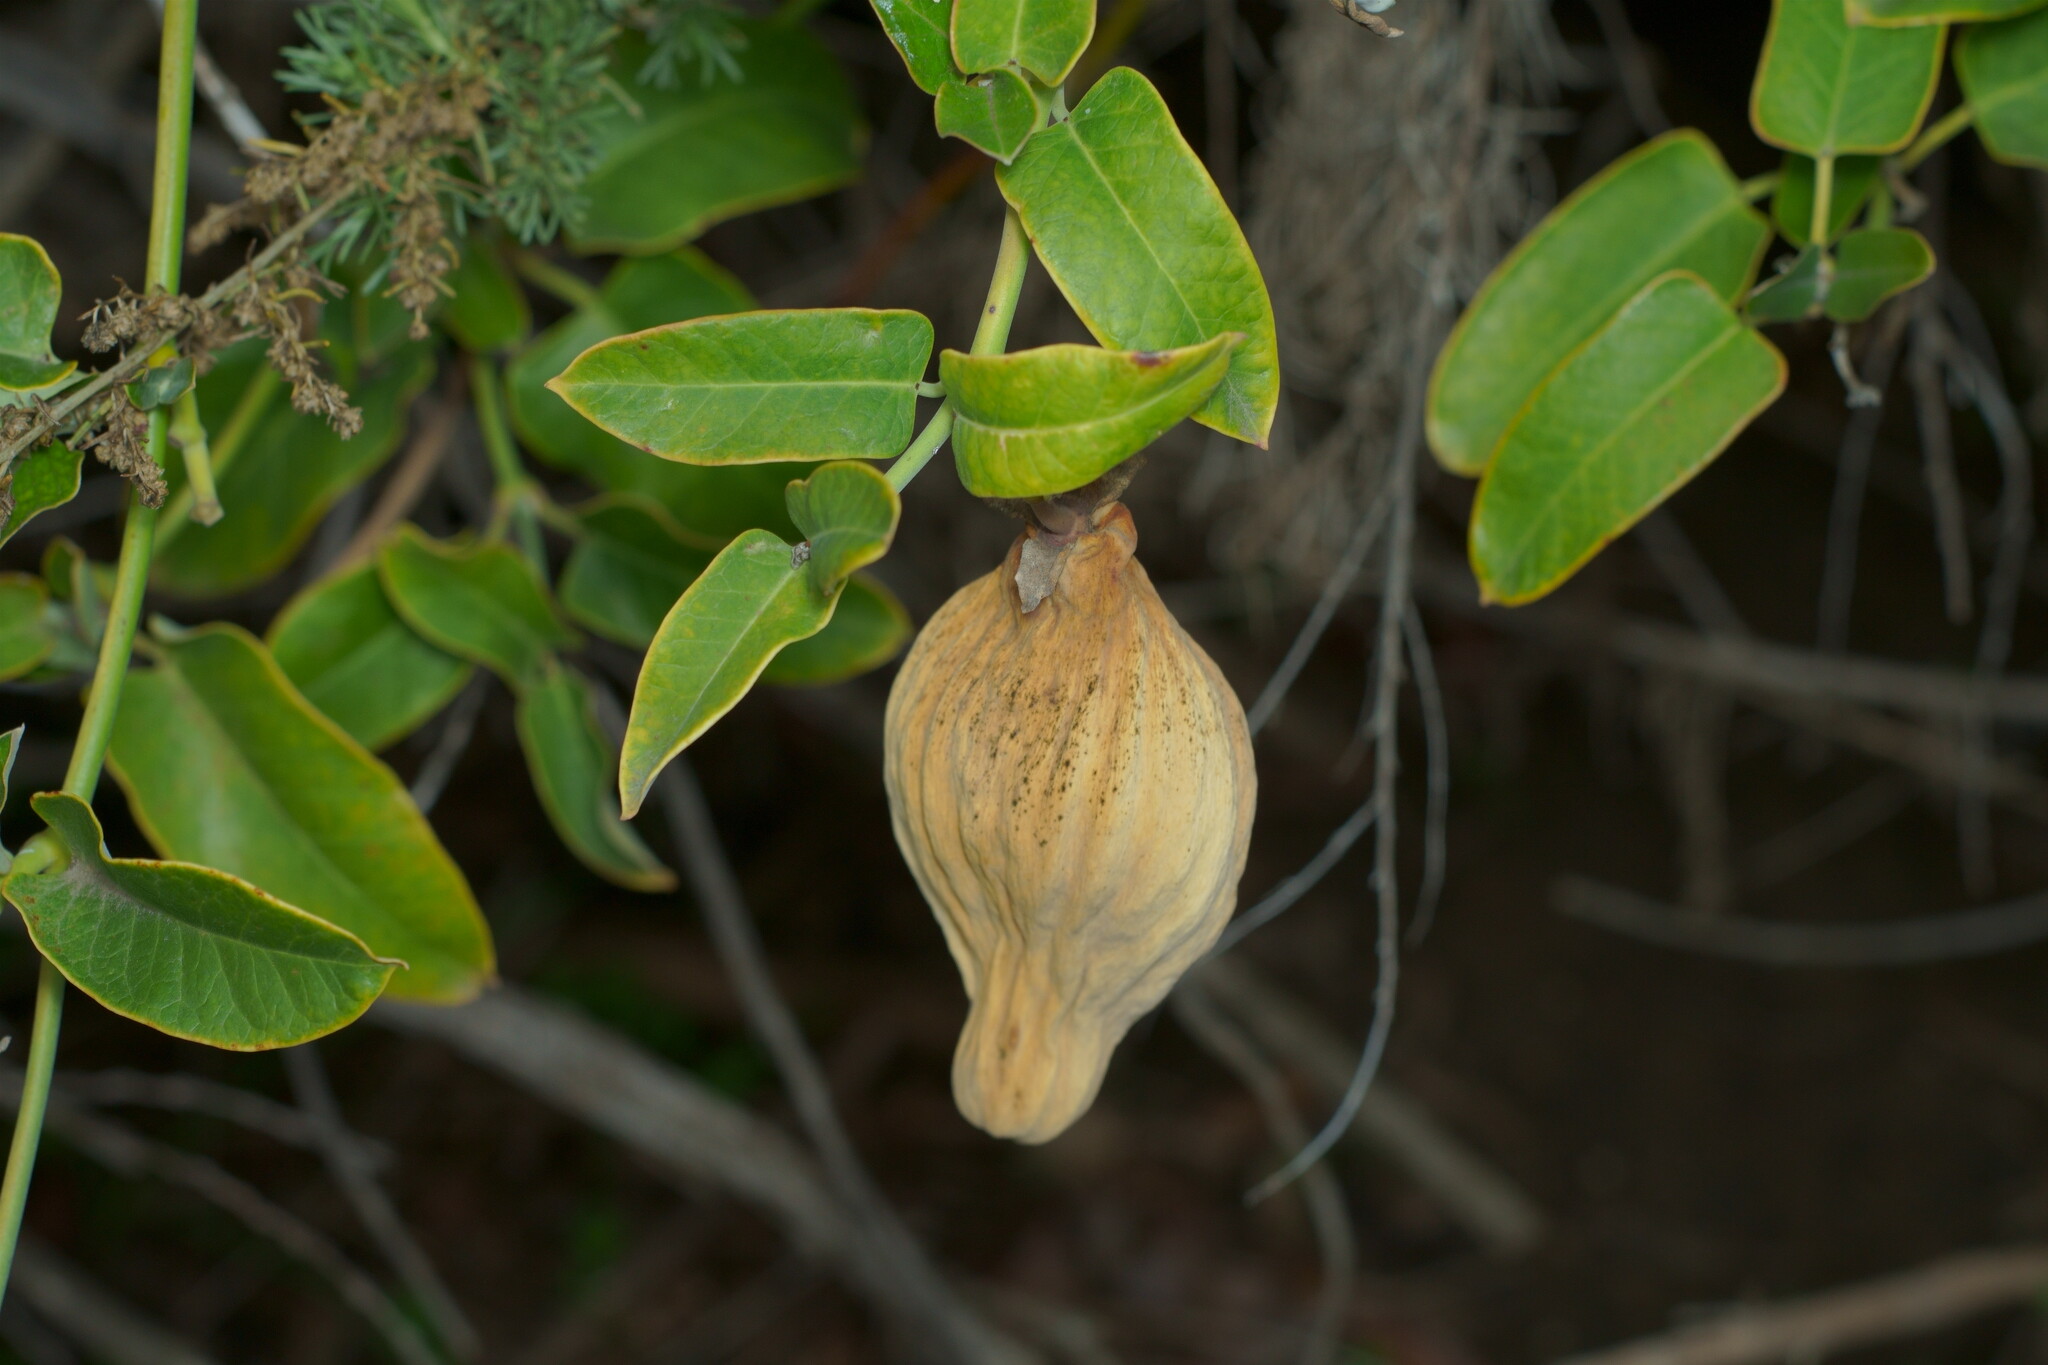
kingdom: Plantae
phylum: Tracheophyta
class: Magnoliopsida
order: Gentianales
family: Apocynaceae
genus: Araujia
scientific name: Araujia sericifera
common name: White bladderflower
